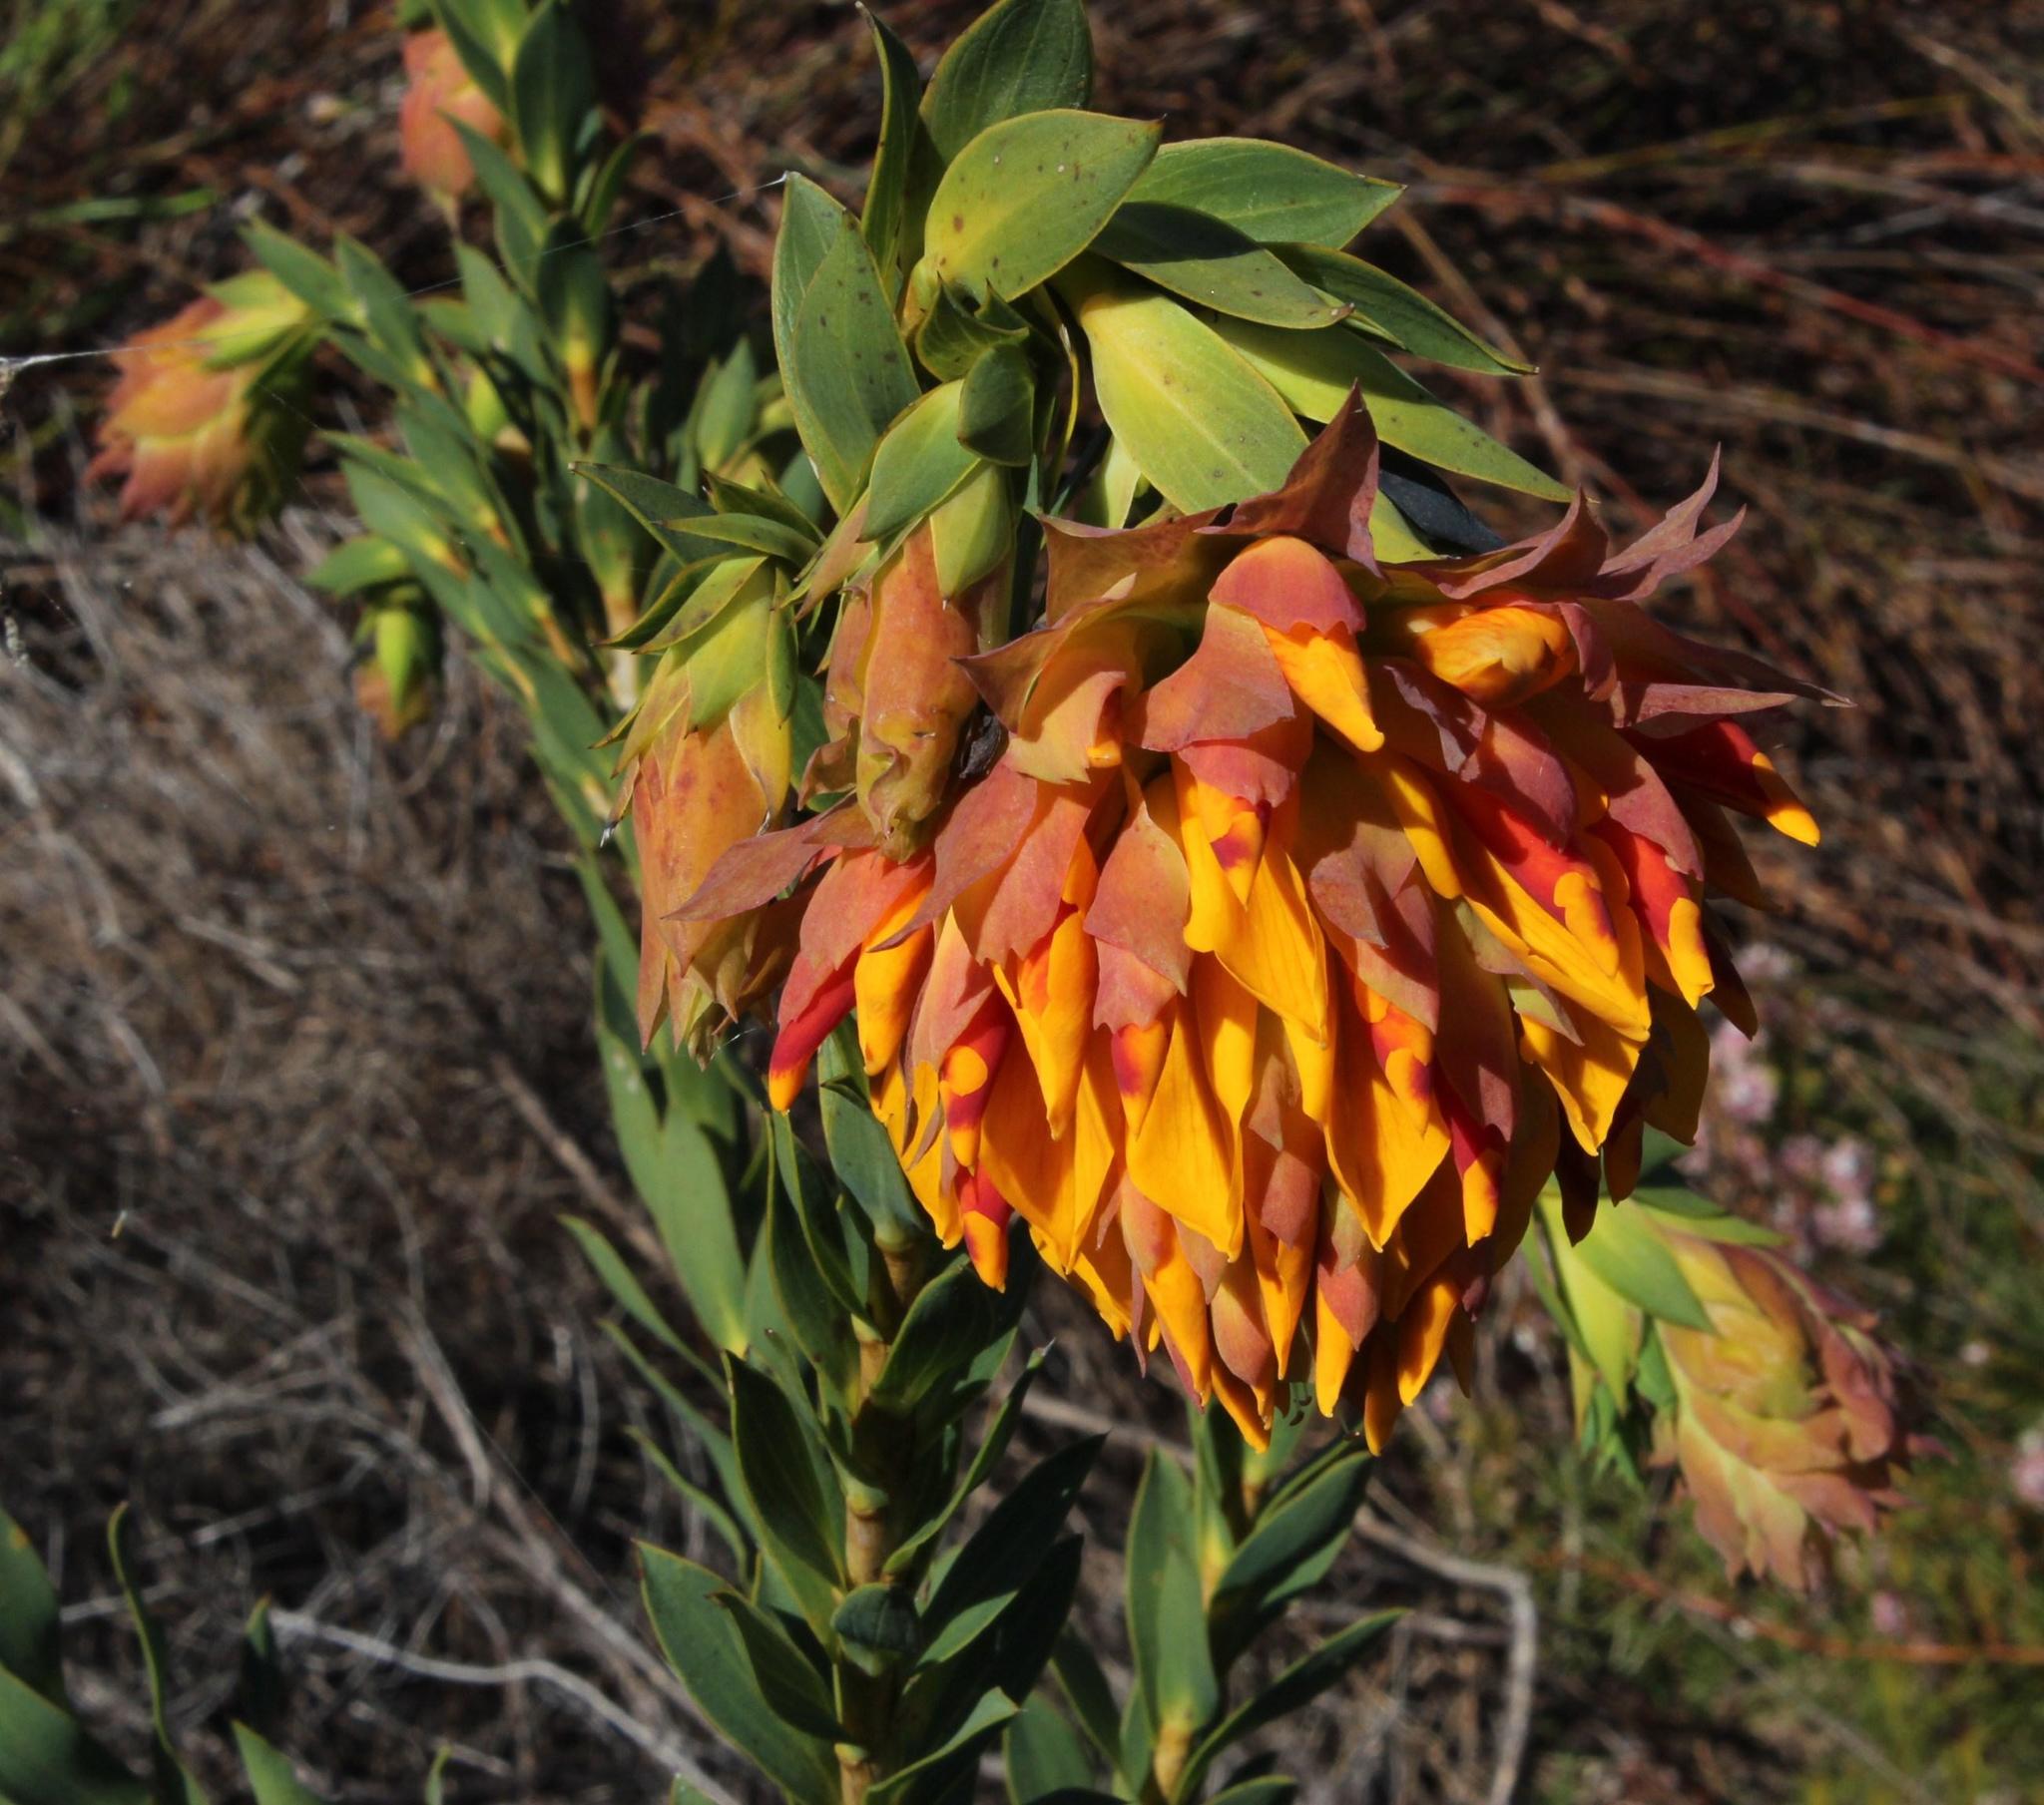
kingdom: Plantae
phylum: Tracheophyta
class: Magnoliopsida
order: Fabales
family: Fabaceae
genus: Liparia
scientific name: Liparia splendens
